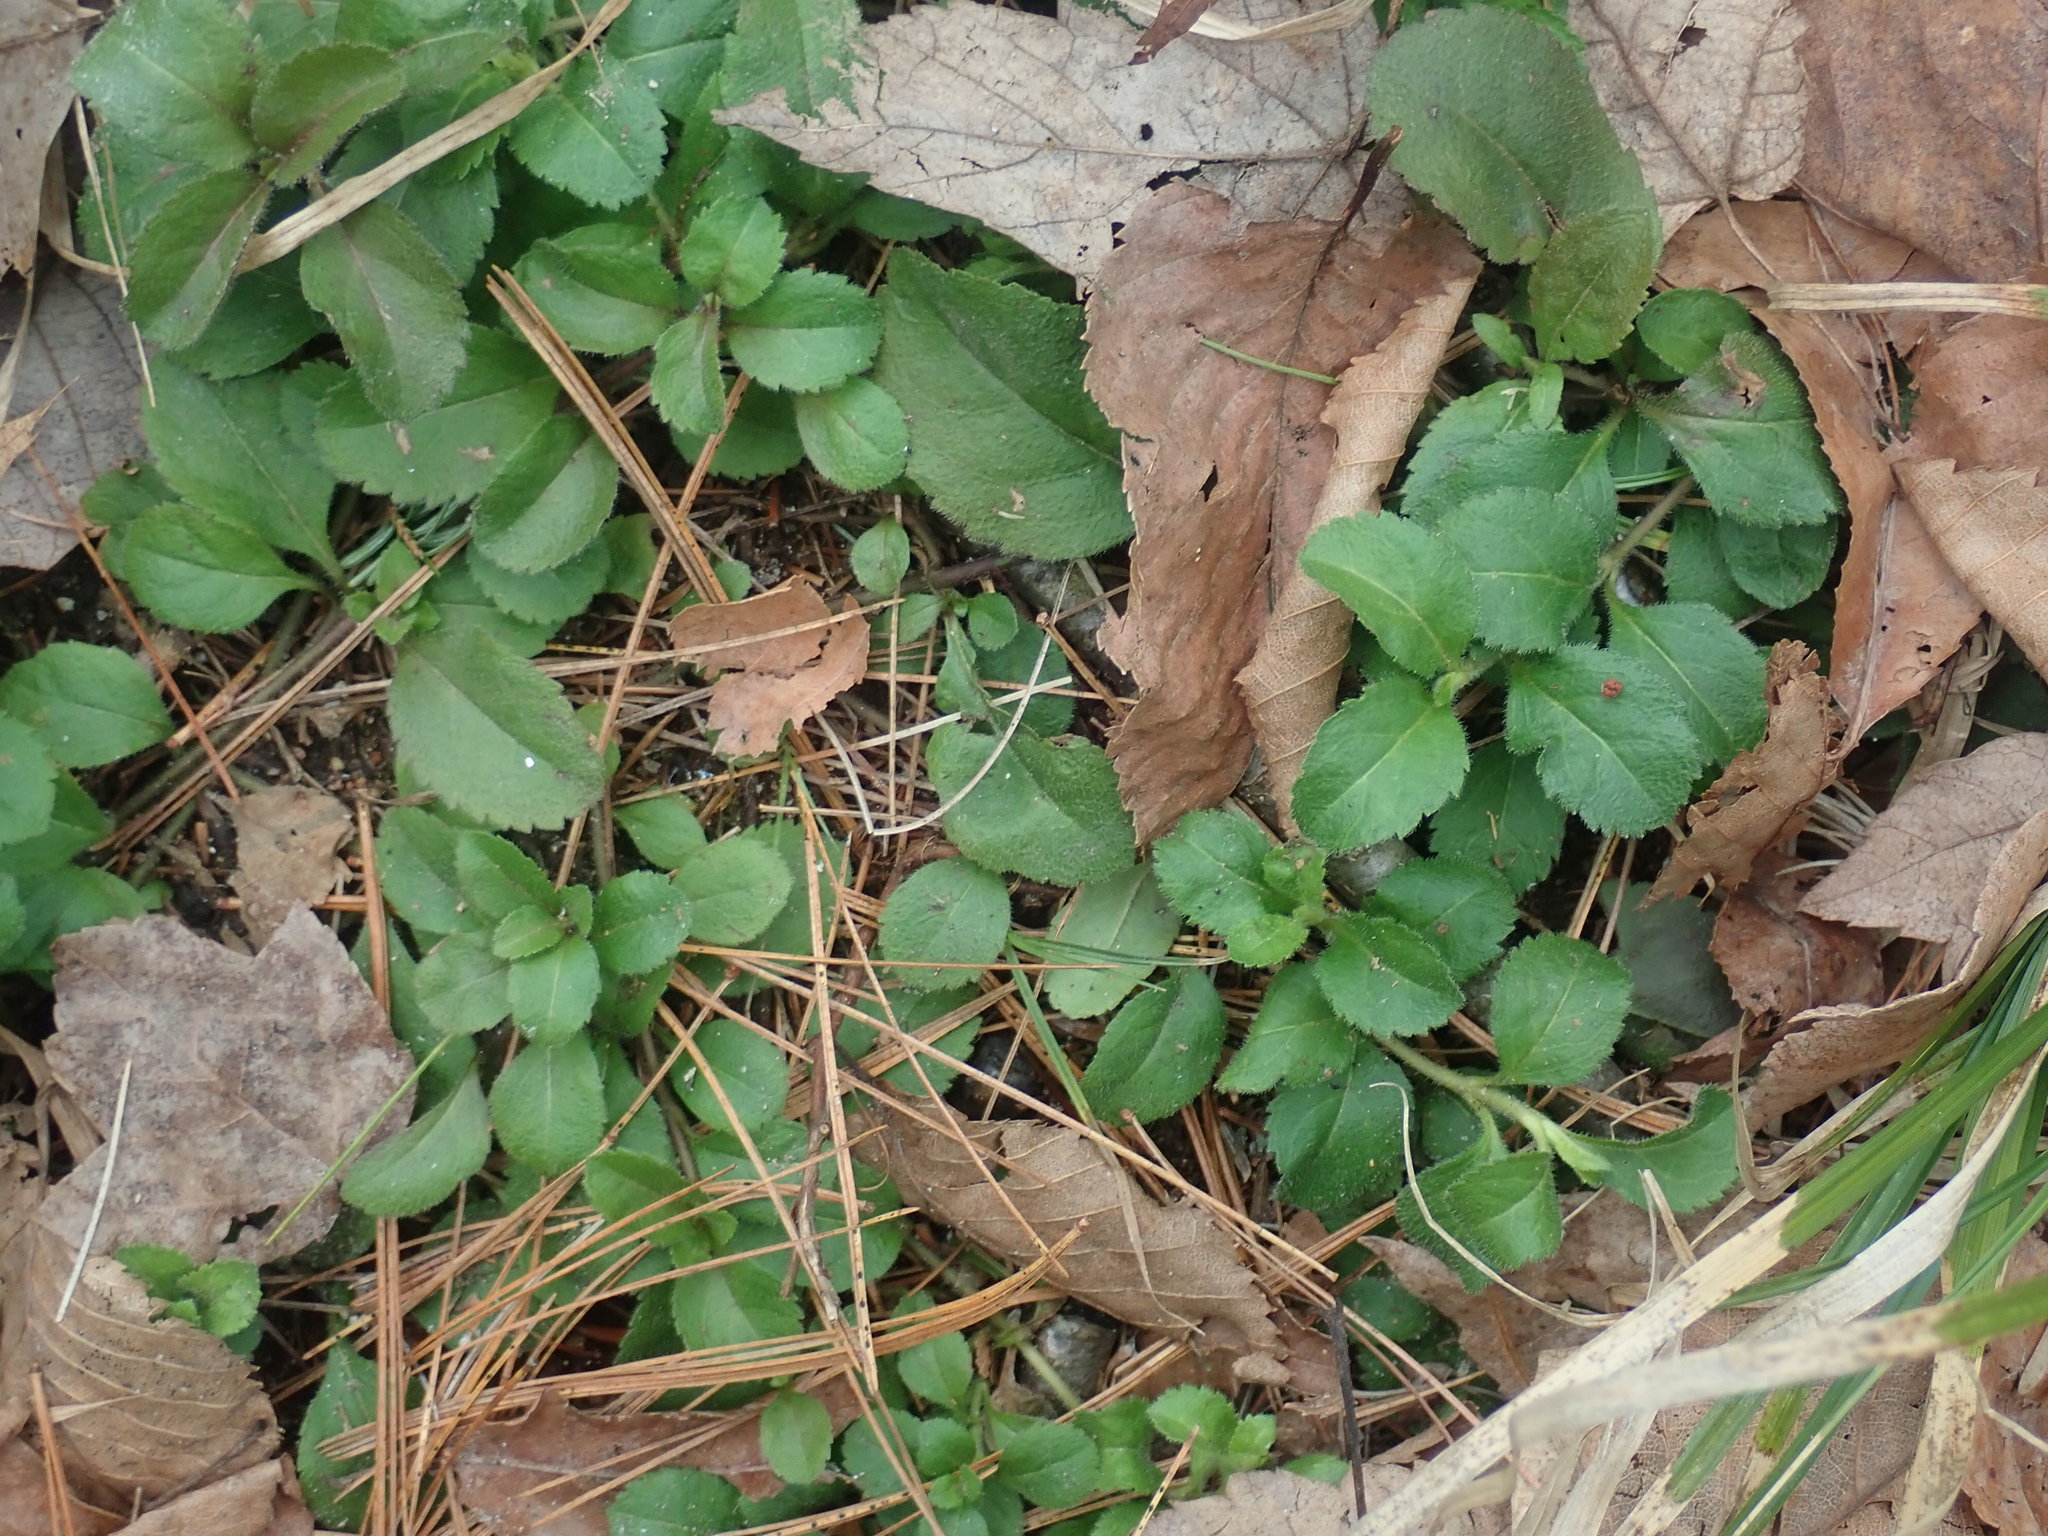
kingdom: Plantae
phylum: Tracheophyta
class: Magnoliopsida
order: Lamiales
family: Plantaginaceae
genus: Veronica
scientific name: Veronica officinalis
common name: Common speedwell
